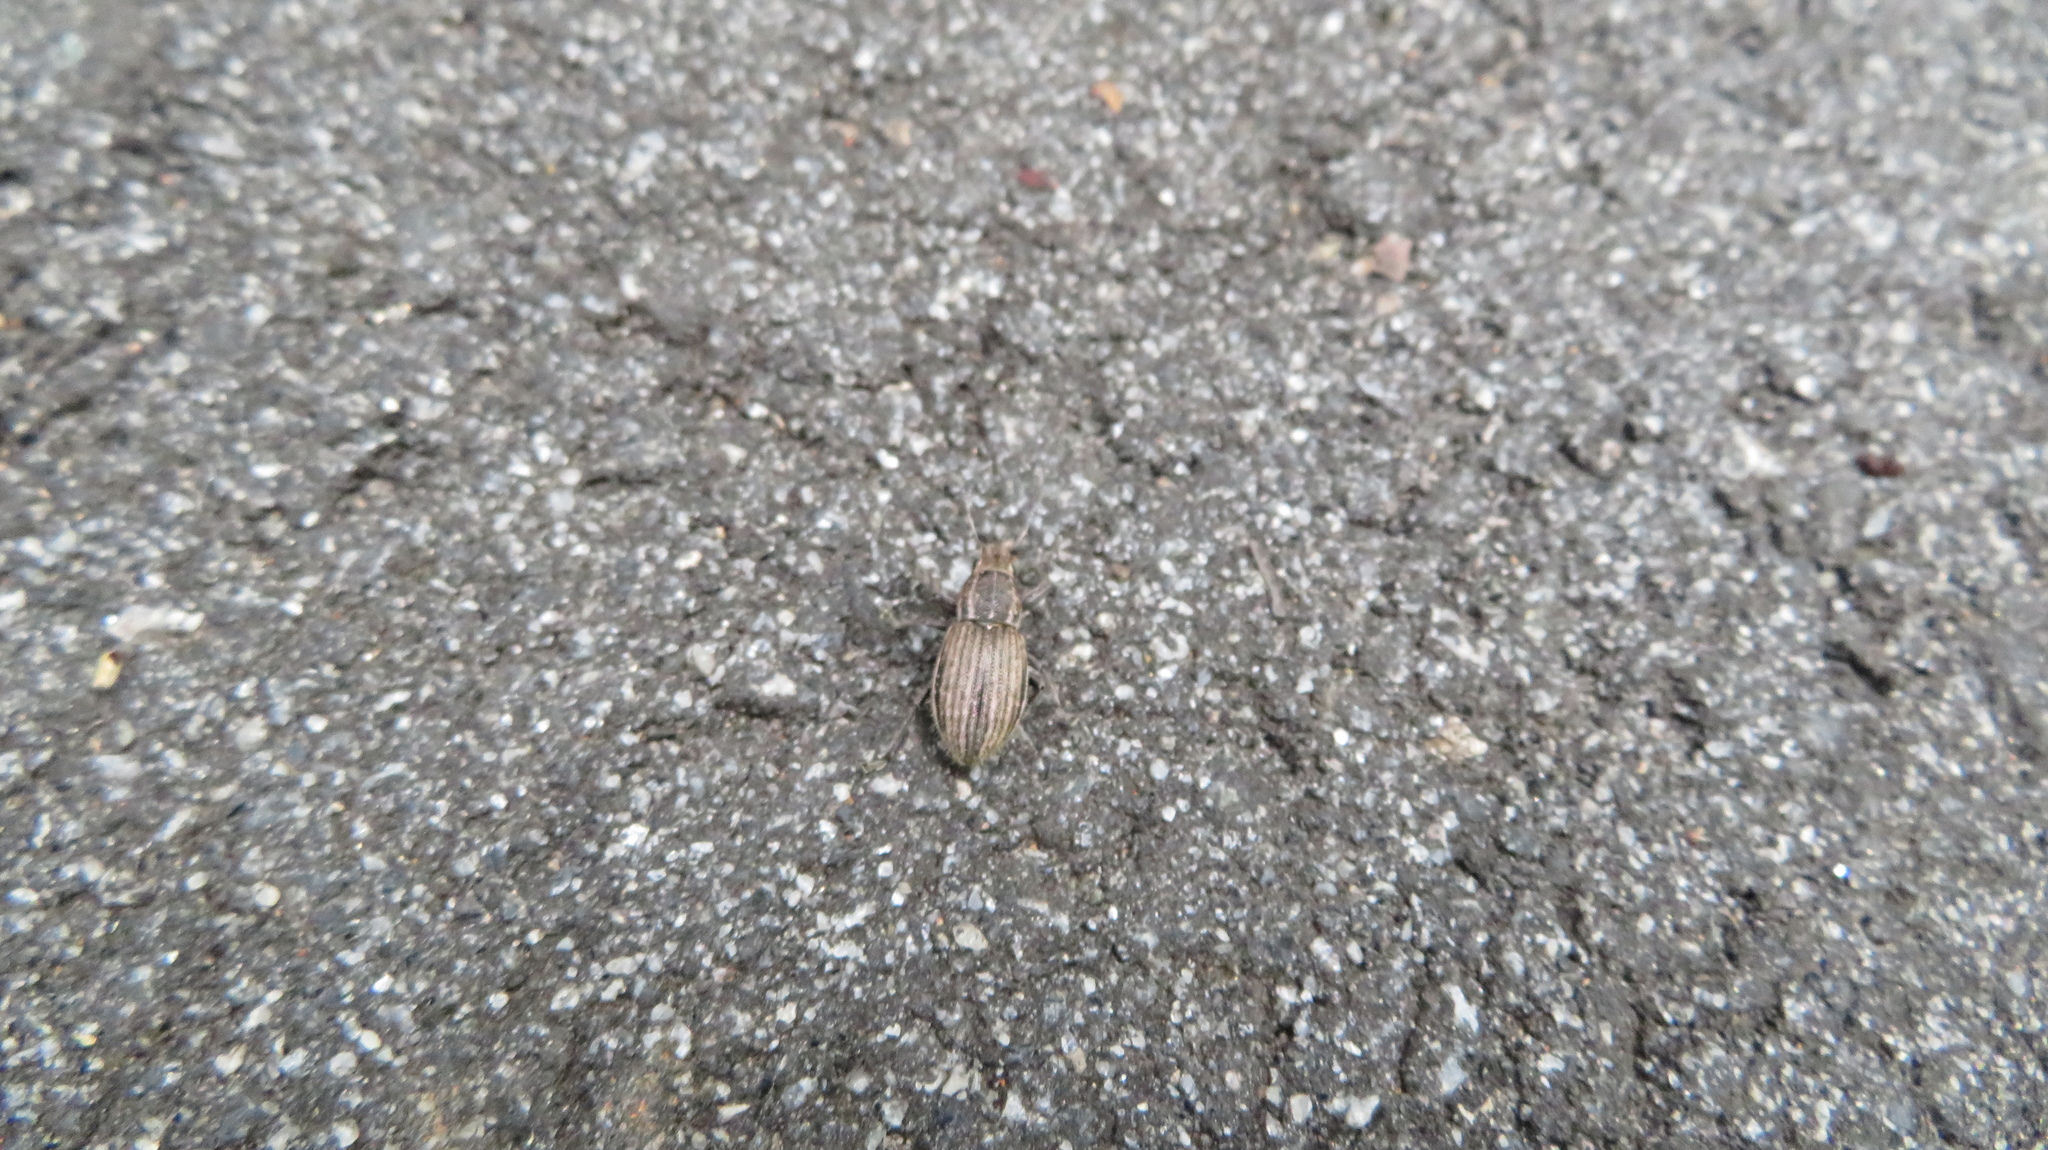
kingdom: Animalia
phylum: Arthropoda
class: Insecta
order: Coleoptera
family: Curculionidae
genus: Naupactus
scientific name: Naupactus leucoloma
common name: Whitefringed beetle
